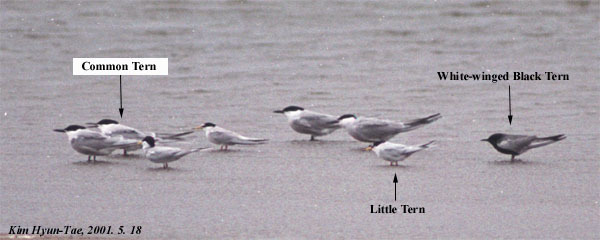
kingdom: Animalia
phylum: Chordata
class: Aves
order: Charadriiformes
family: Laridae
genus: Chlidonias
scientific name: Chlidonias leucopterus
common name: White-winged tern
